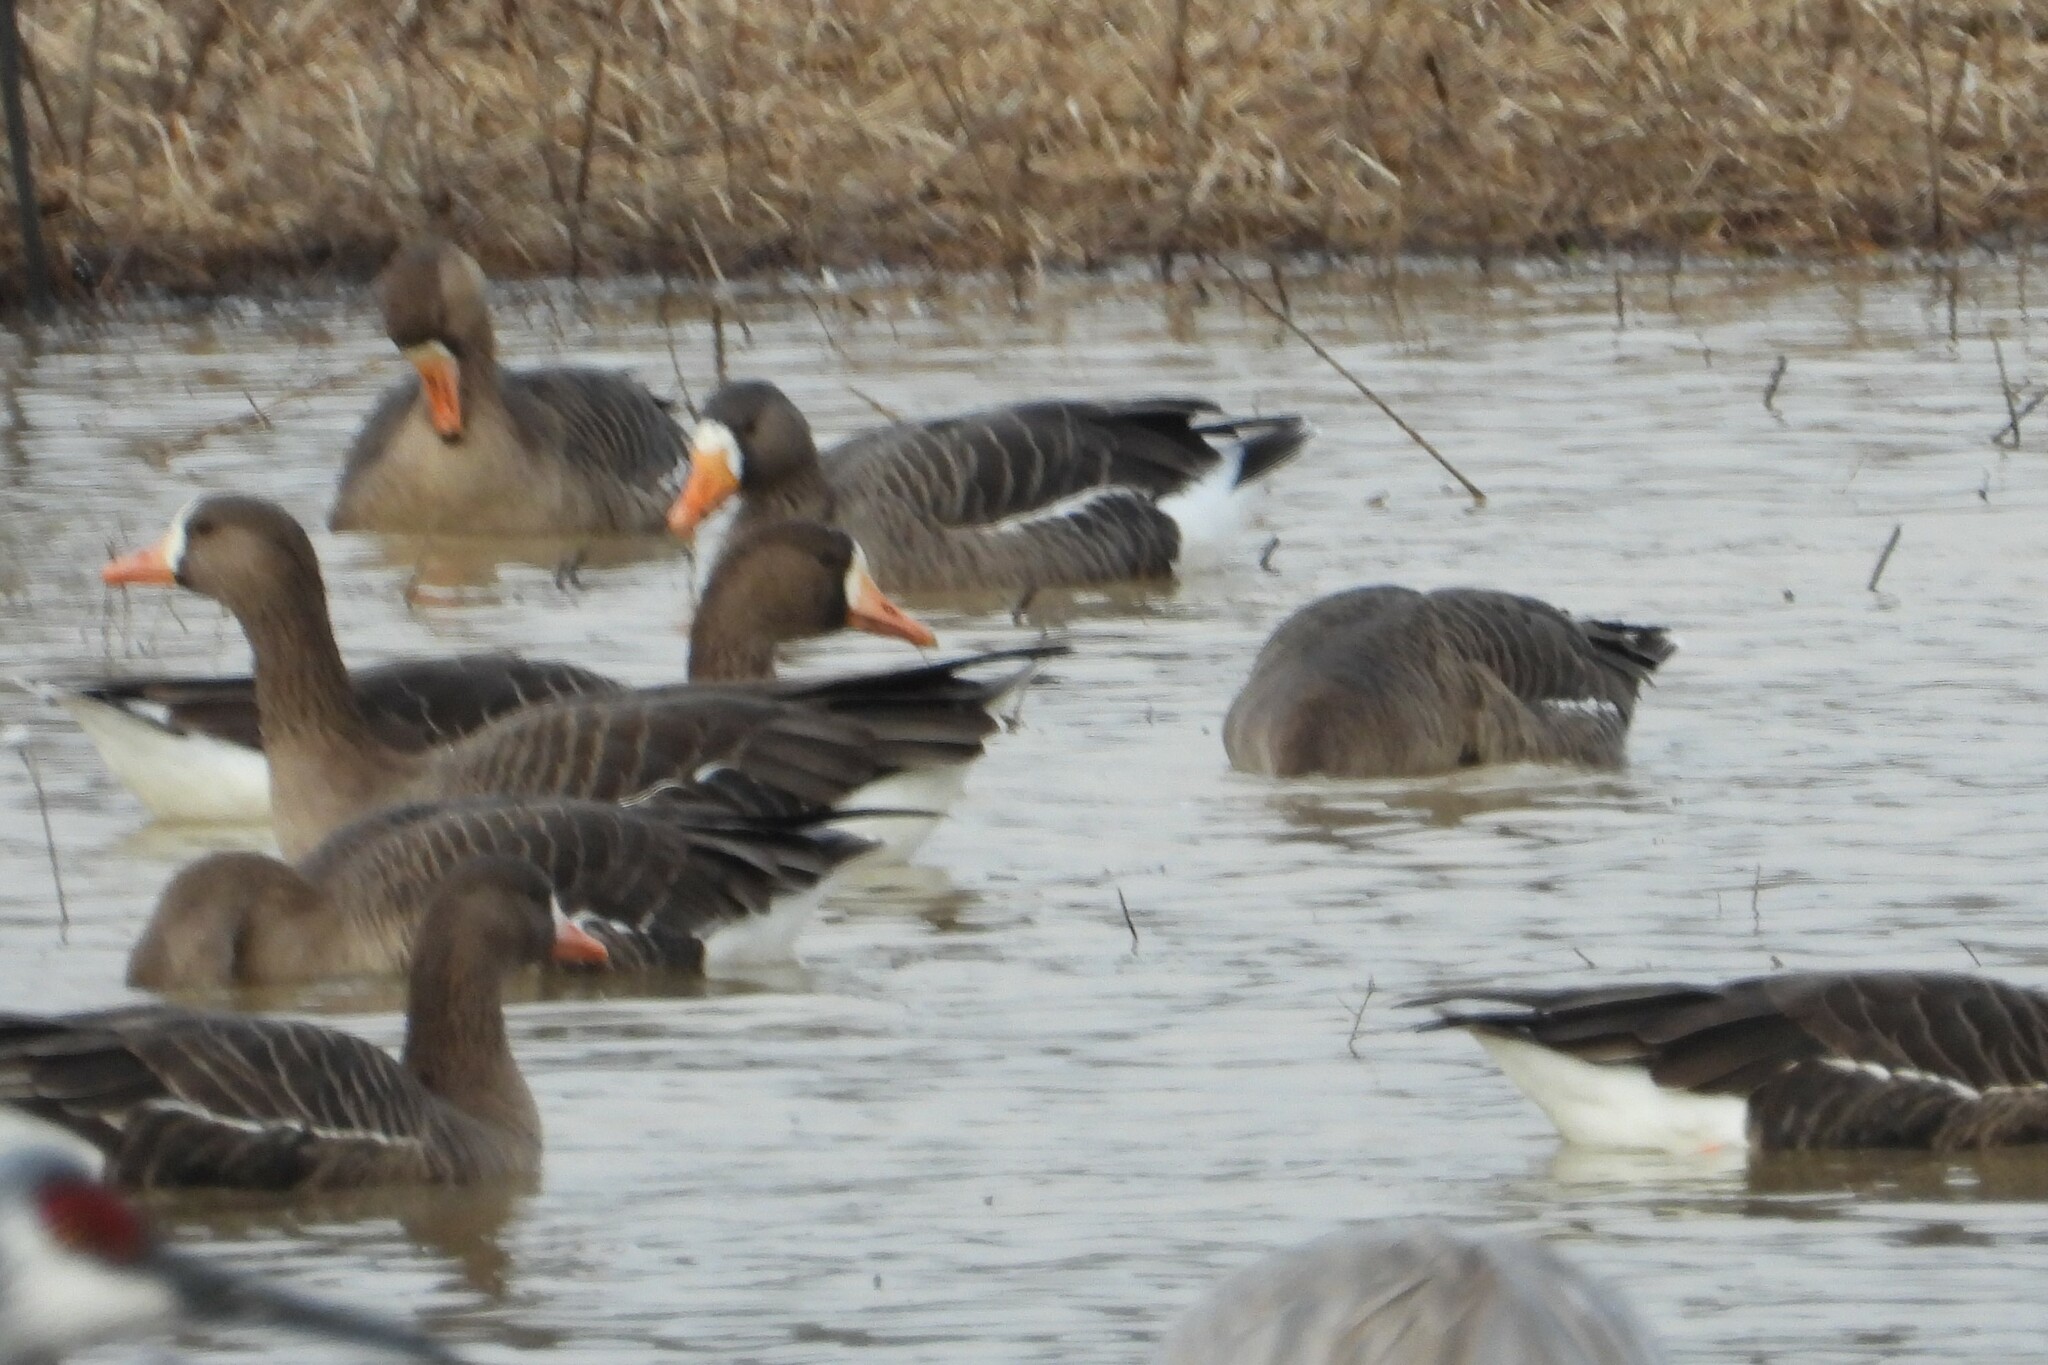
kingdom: Animalia
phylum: Chordata
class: Aves
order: Anseriformes
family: Anatidae
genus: Anser
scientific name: Anser albifrons
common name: Greater white-fronted goose
